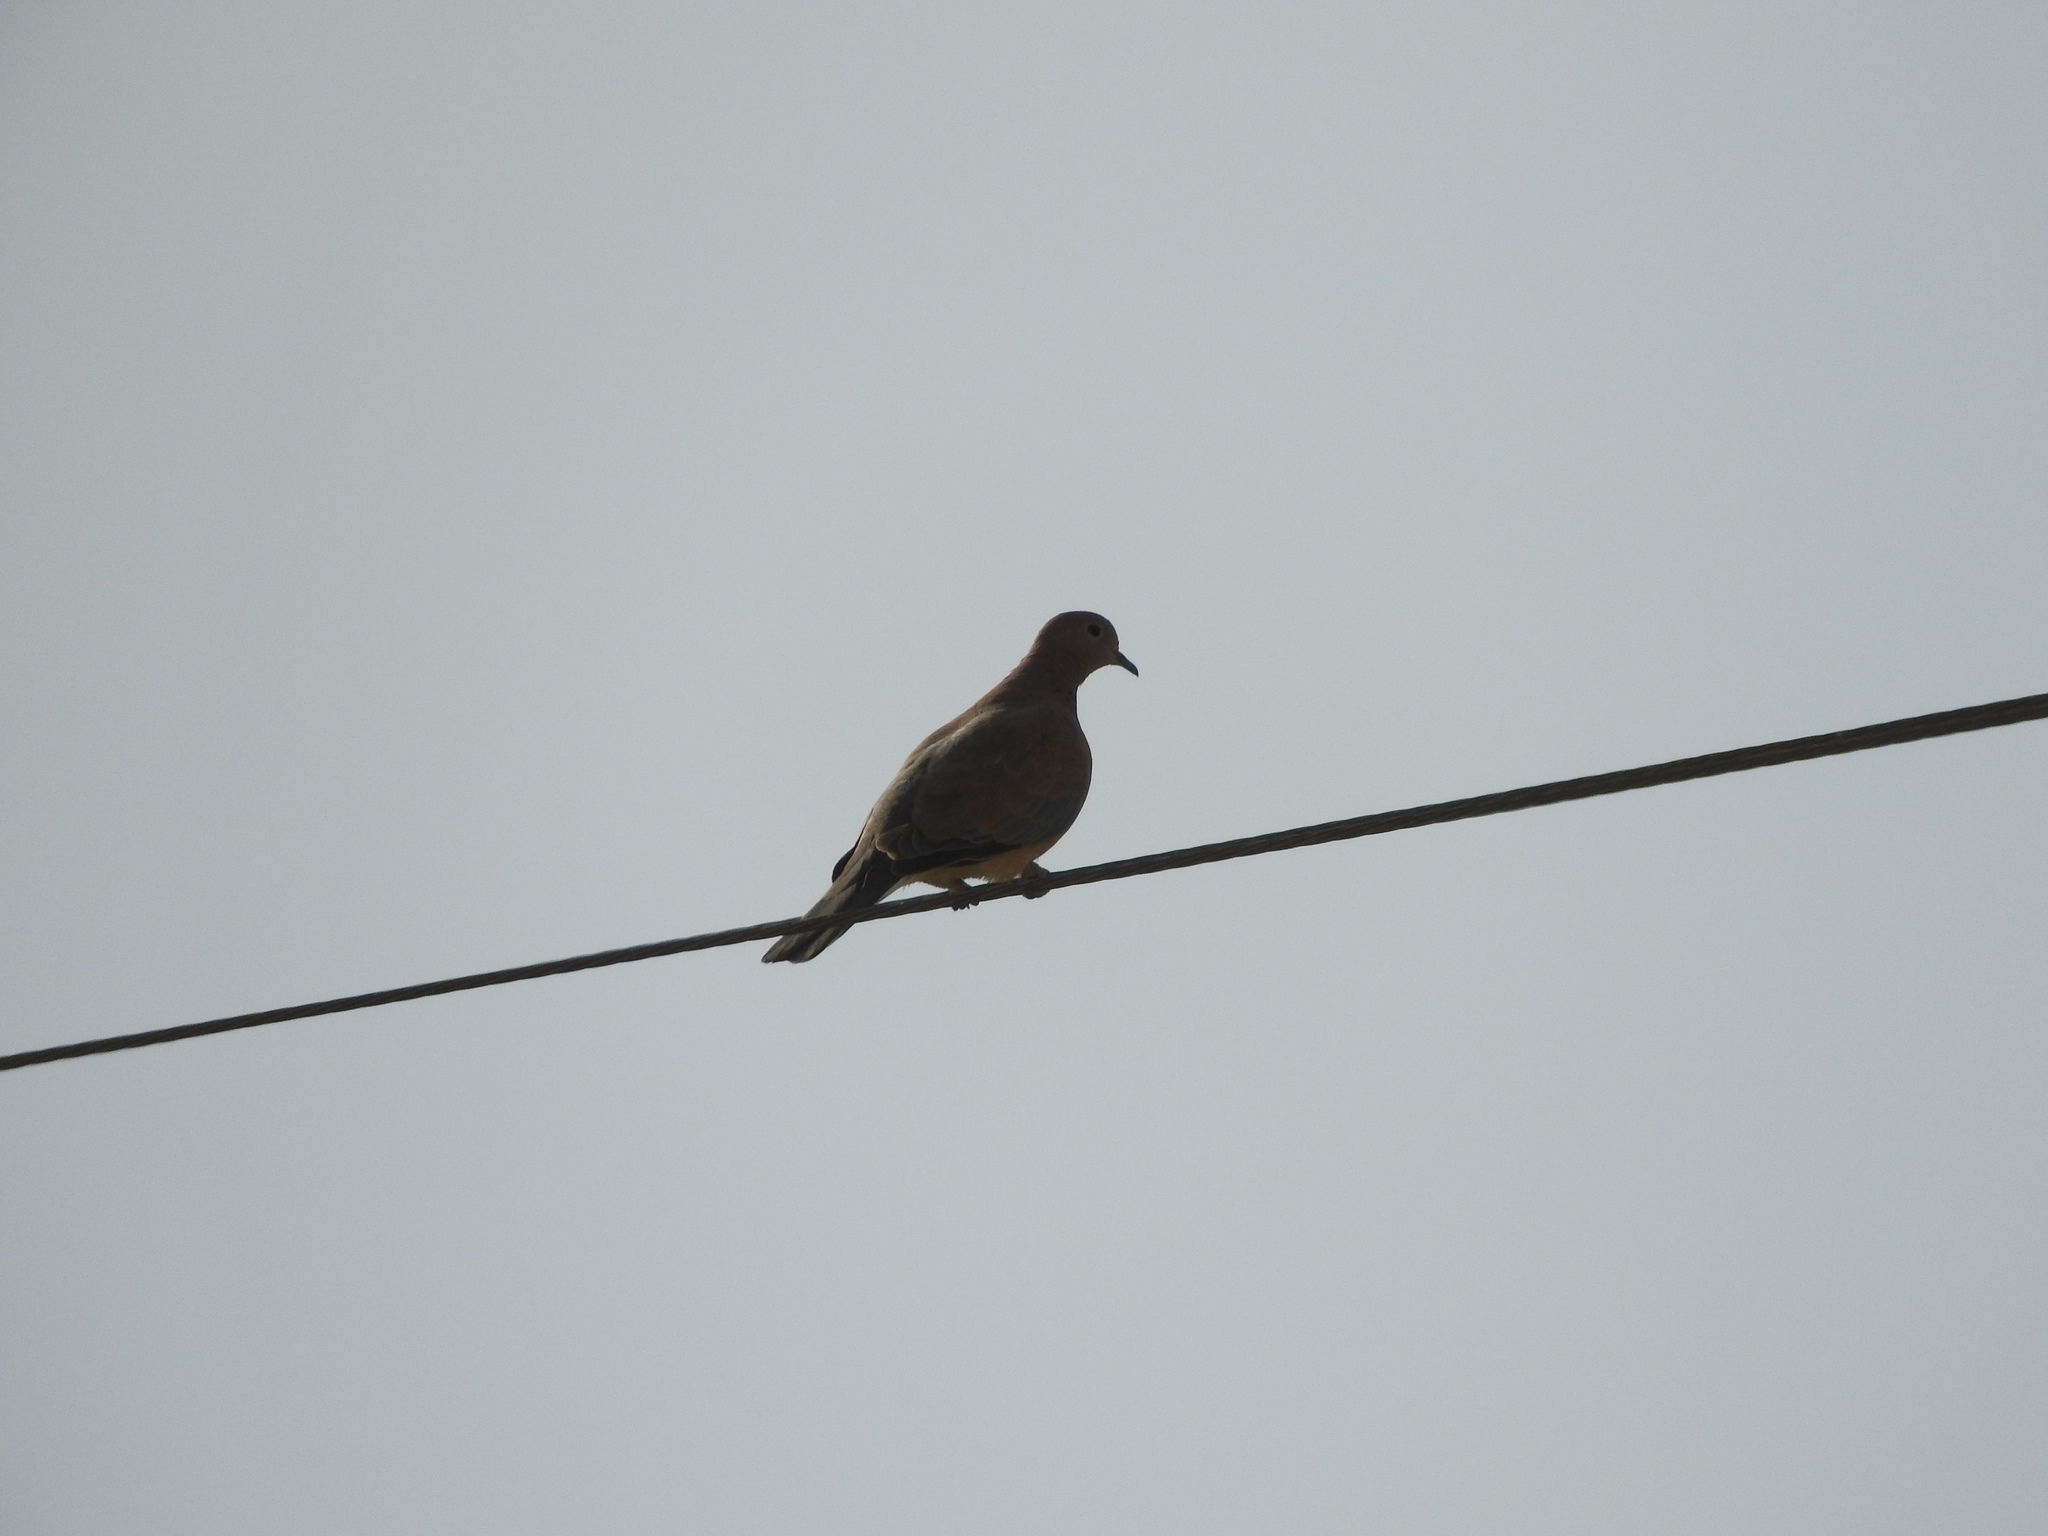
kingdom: Animalia
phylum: Chordata
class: Aves
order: Columbiformes
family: Columbidae
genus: Spilopelia
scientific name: Spilopelia senegalensis
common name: Laughing dove
